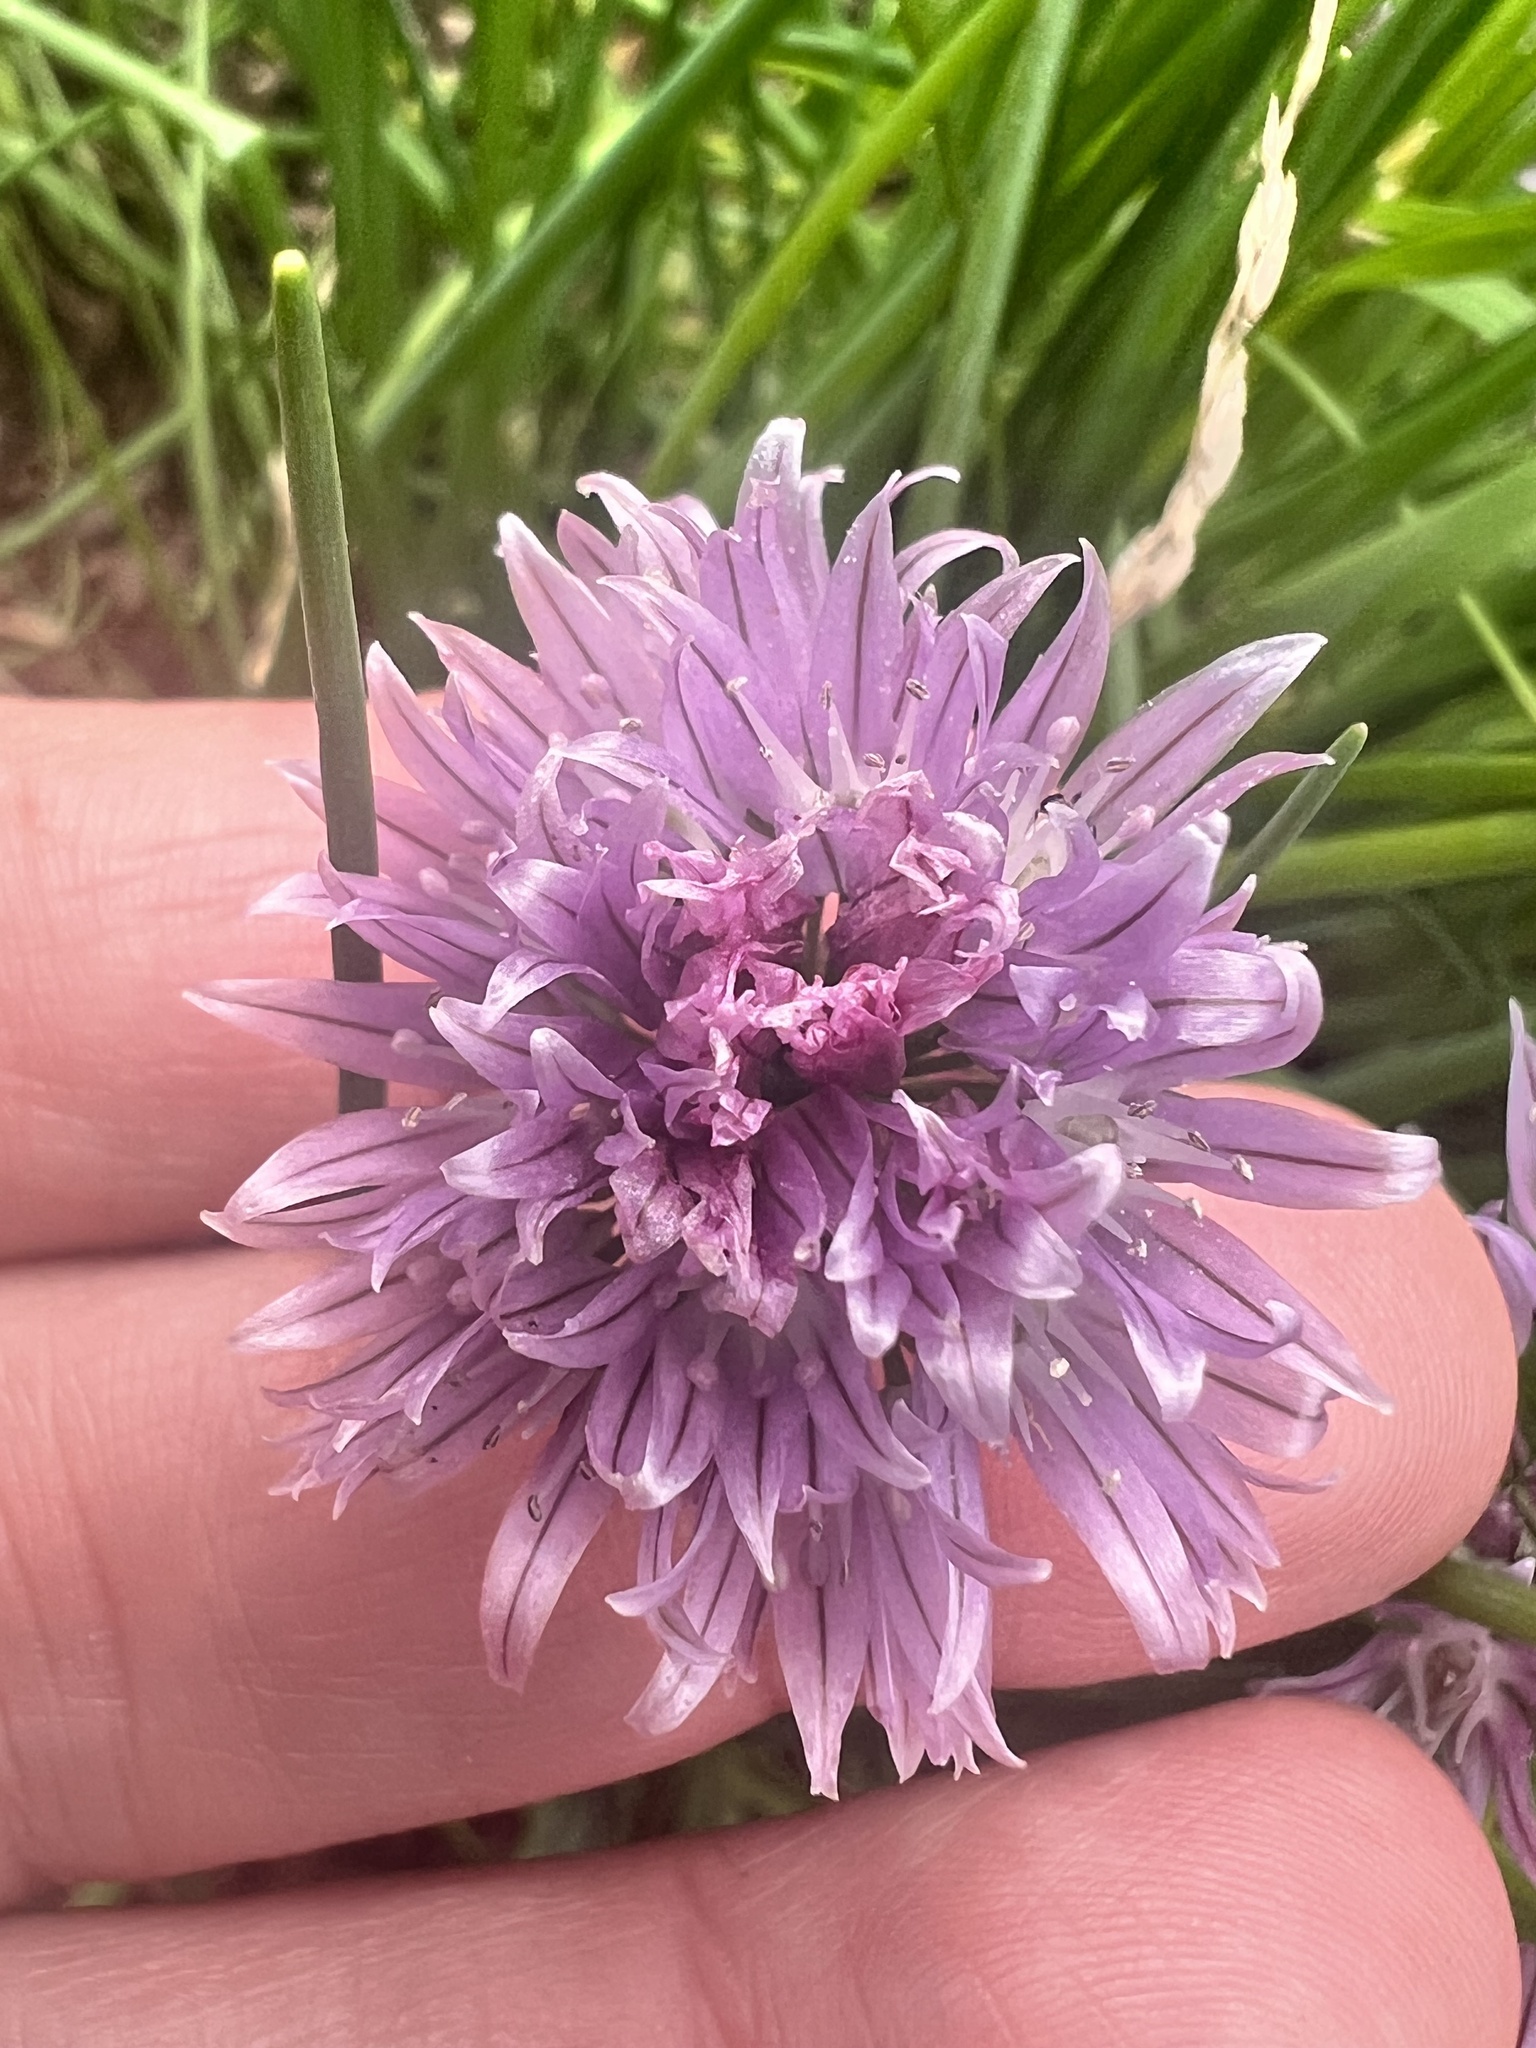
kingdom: Plantae
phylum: Tracheophyta
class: Liliopsida
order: Asparagales
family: Amaryllidaceae
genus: Allium
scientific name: Allium schoenoprasum
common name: Chives
